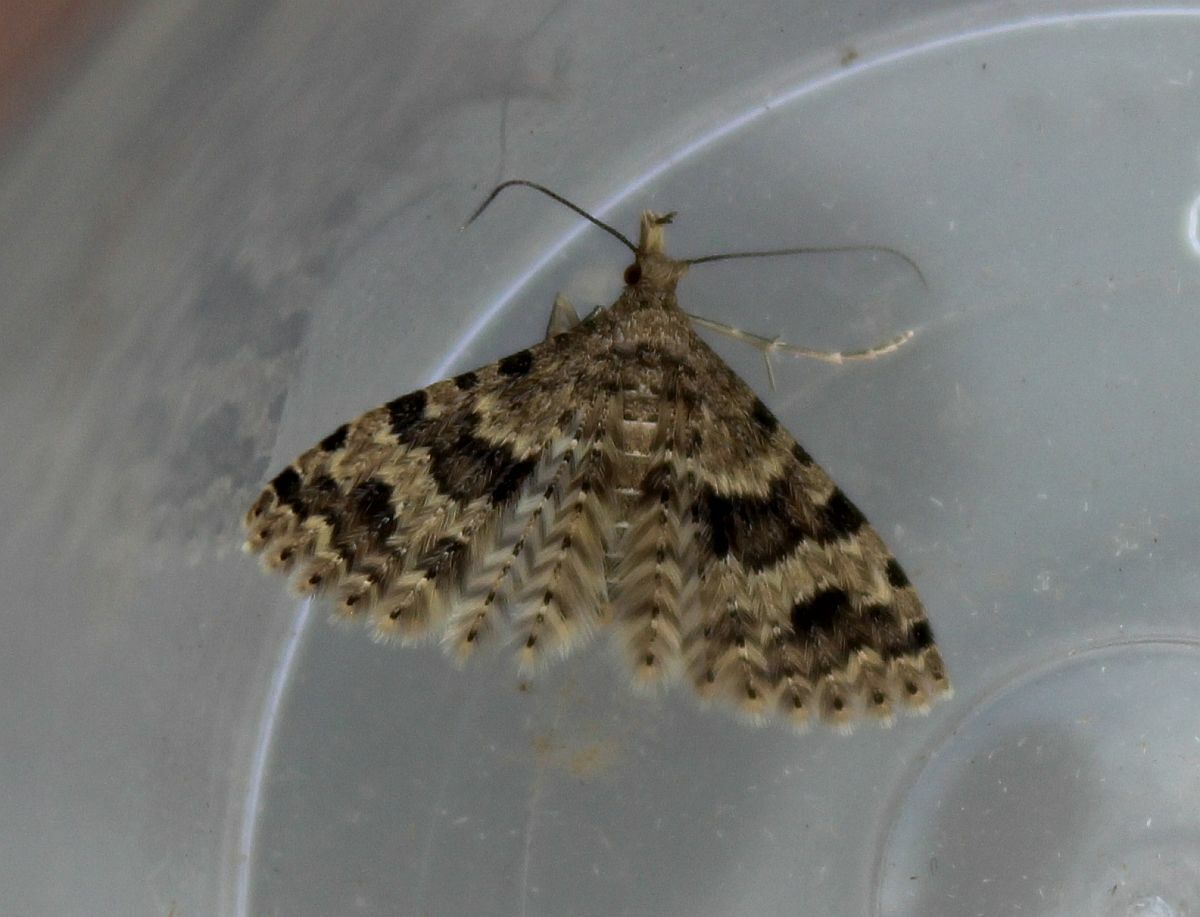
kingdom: Animalia
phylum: Arthropoda
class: Insecta
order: Lepidoptera
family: Alucitidae
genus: Alucita
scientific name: Alucita hexadactyla
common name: Twenty-plume moth
